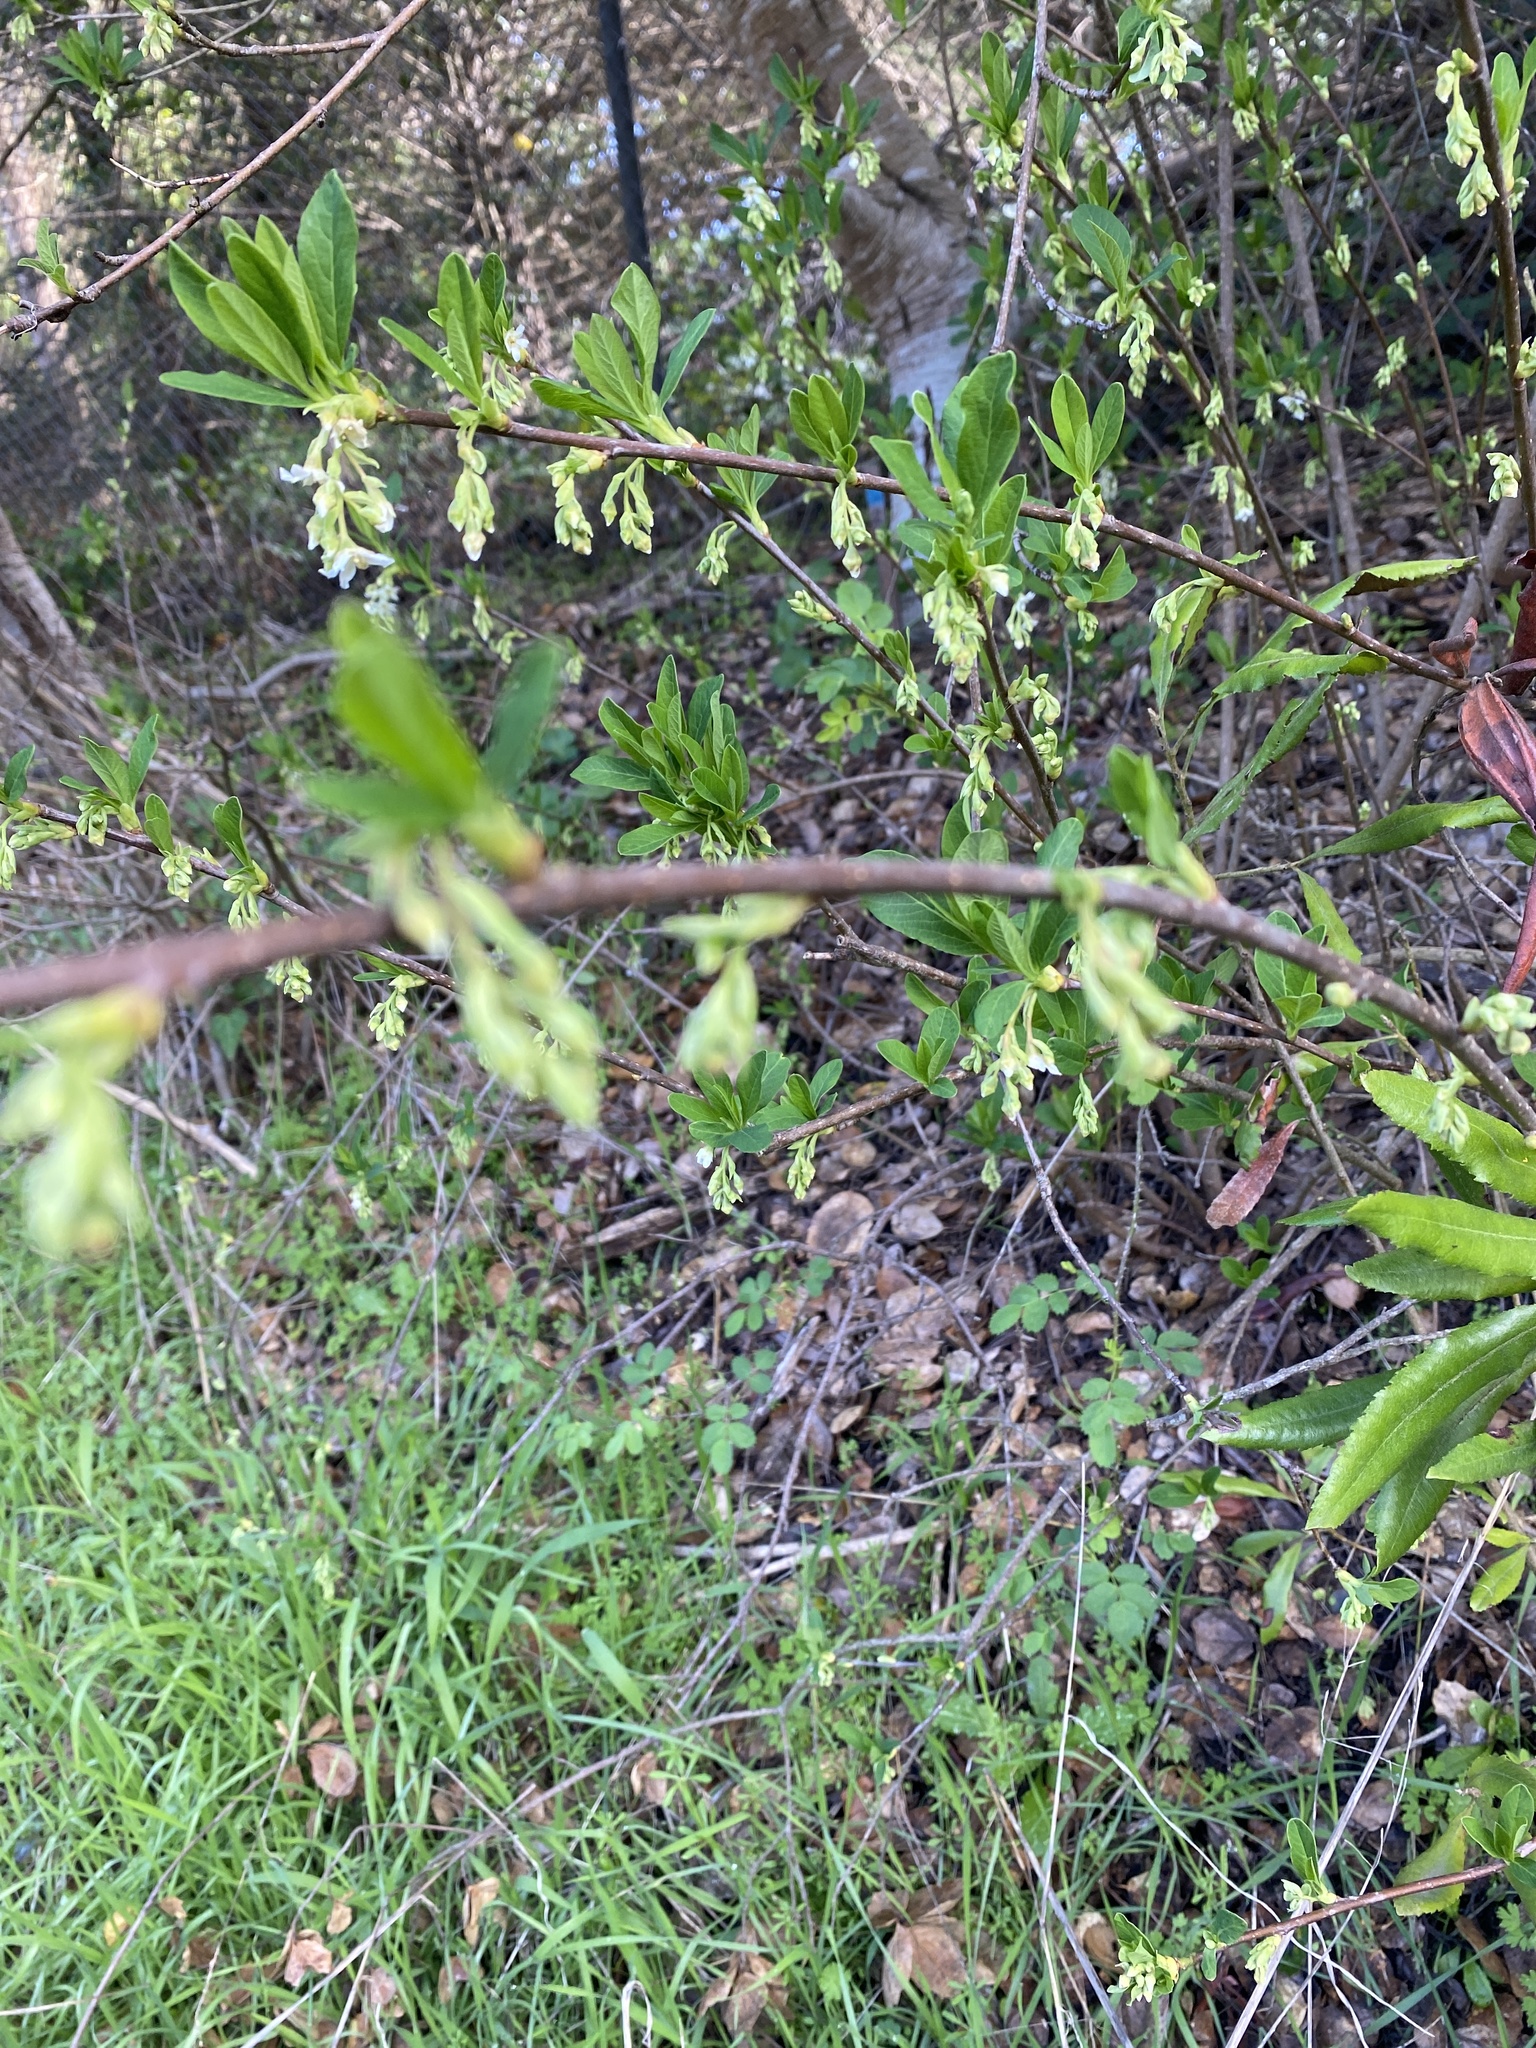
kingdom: Plantae
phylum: Tracheophyta
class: Magnoliopsida
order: Rosales
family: Rosaceae
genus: Oemleria
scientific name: Oemleria cerasiformis
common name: Osoberry
